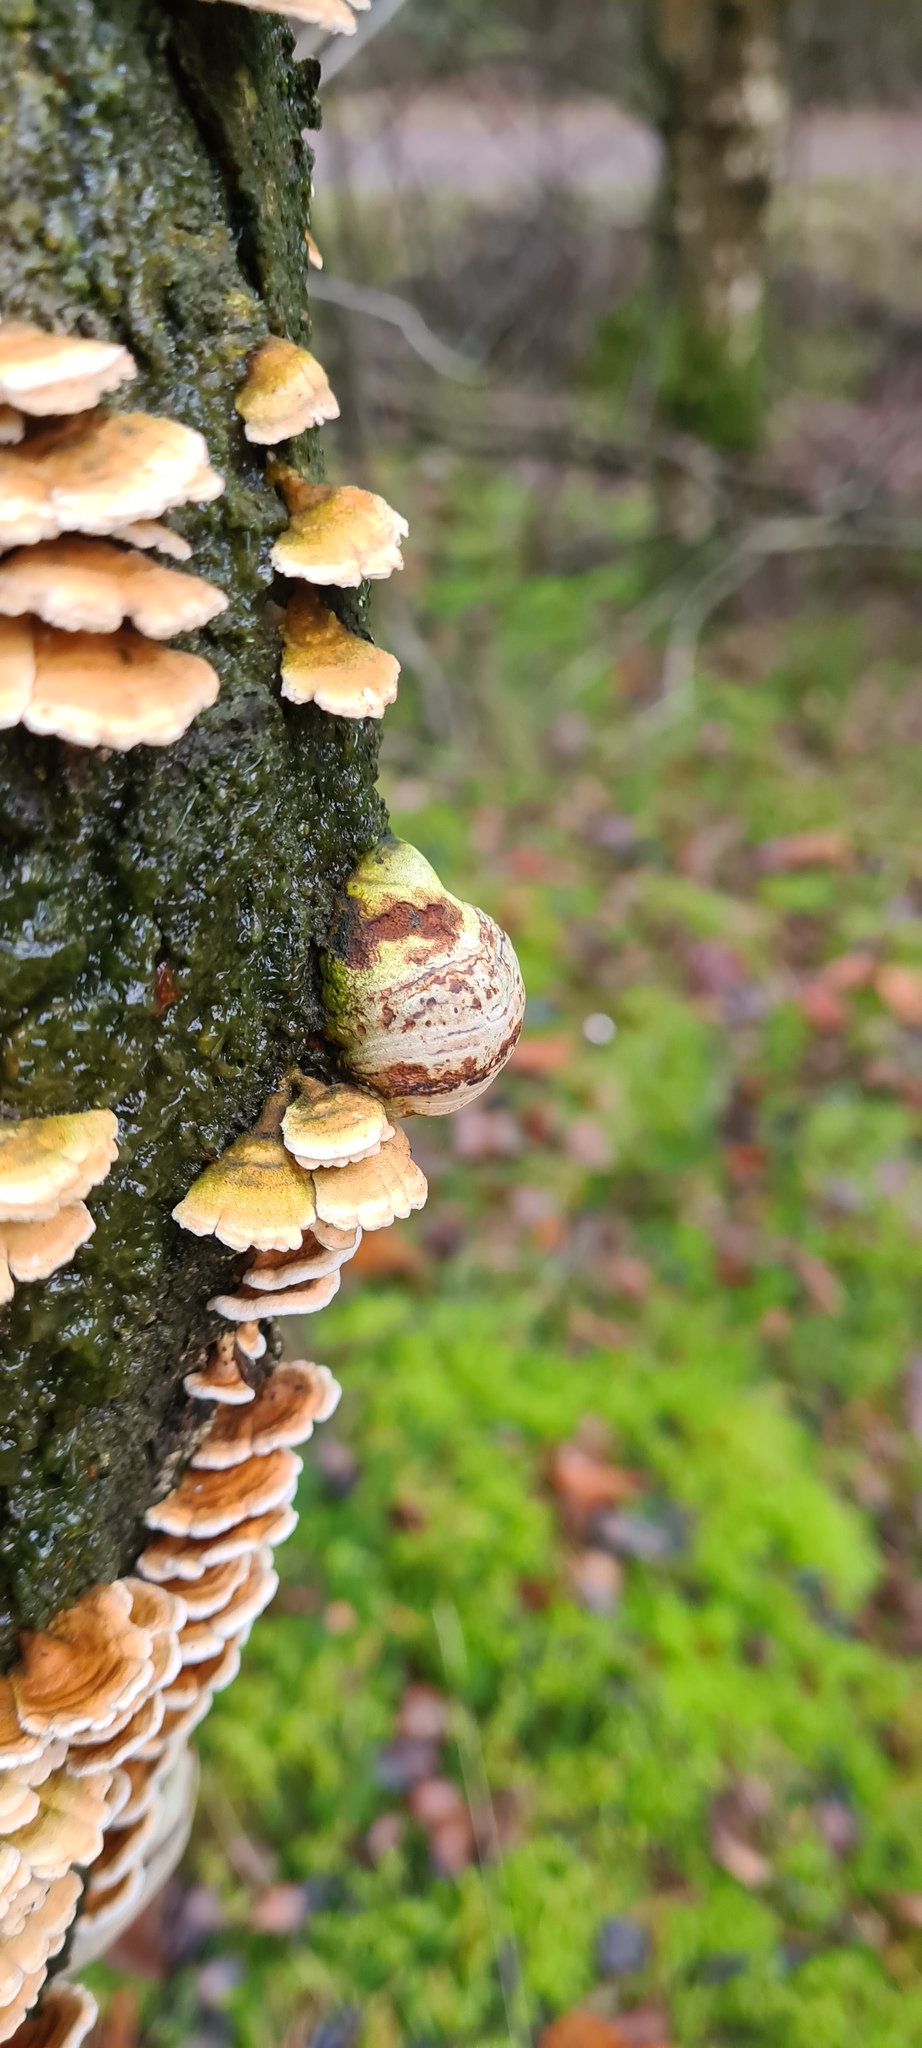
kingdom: Fungi
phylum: Basidiomycota
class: Agaricomycetes
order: Amylocorticiales
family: Amylocorticiaceae
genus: Plicaturopsis
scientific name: Plicaturopsis crispa
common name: Crimped gill
